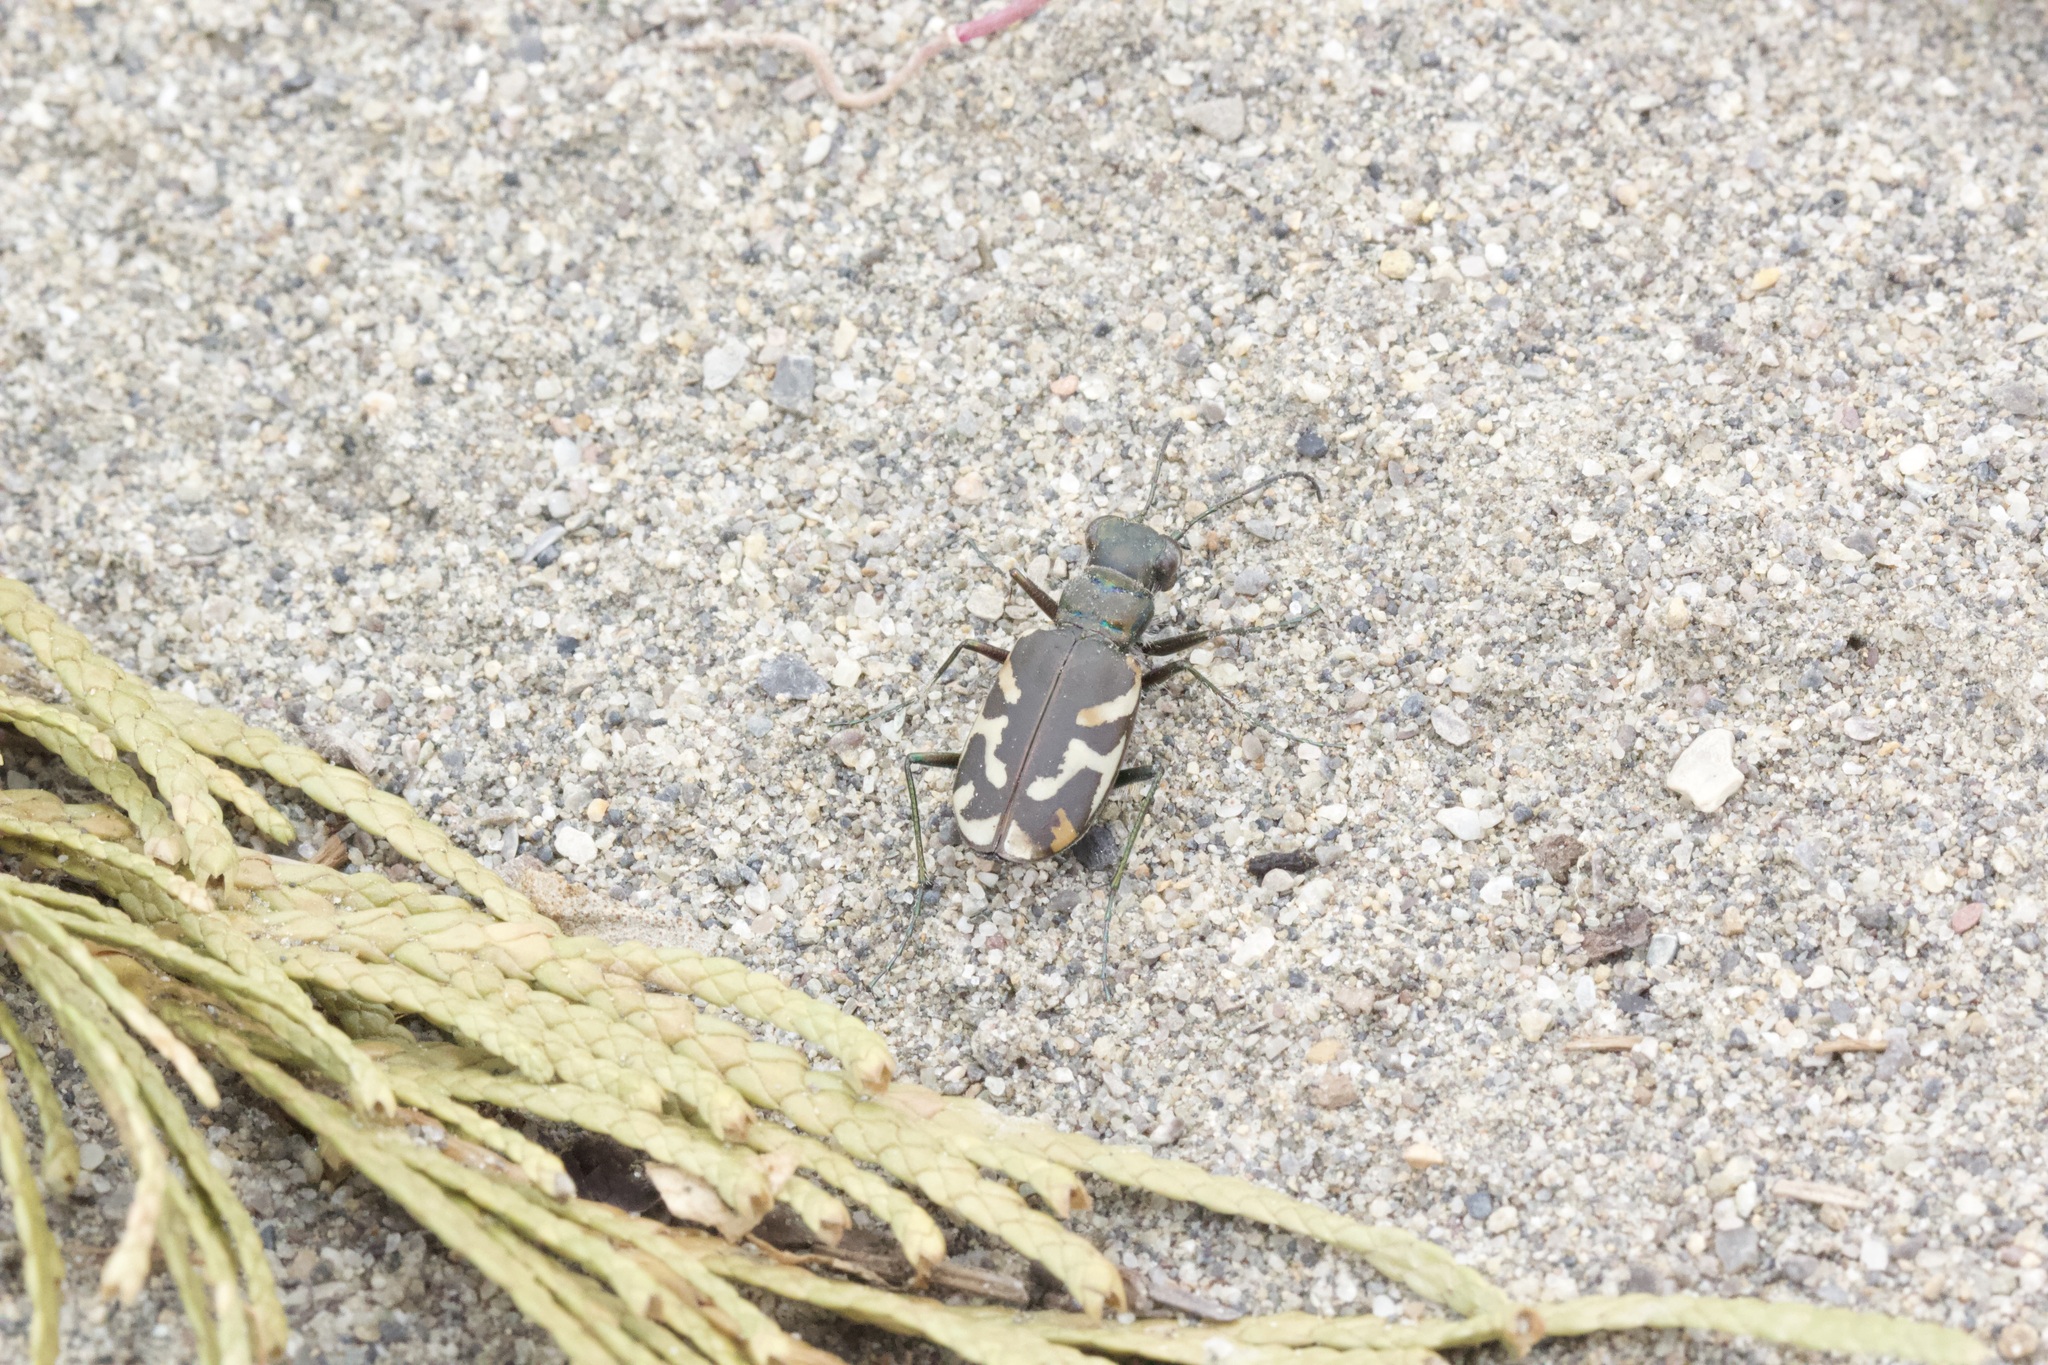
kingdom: Animalia
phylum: Arthropoda
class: Insecta
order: Coleoptera
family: Carabidae
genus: Cicindela
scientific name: Cicindela tranquebarica
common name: Oblique-lined tiger beetle
